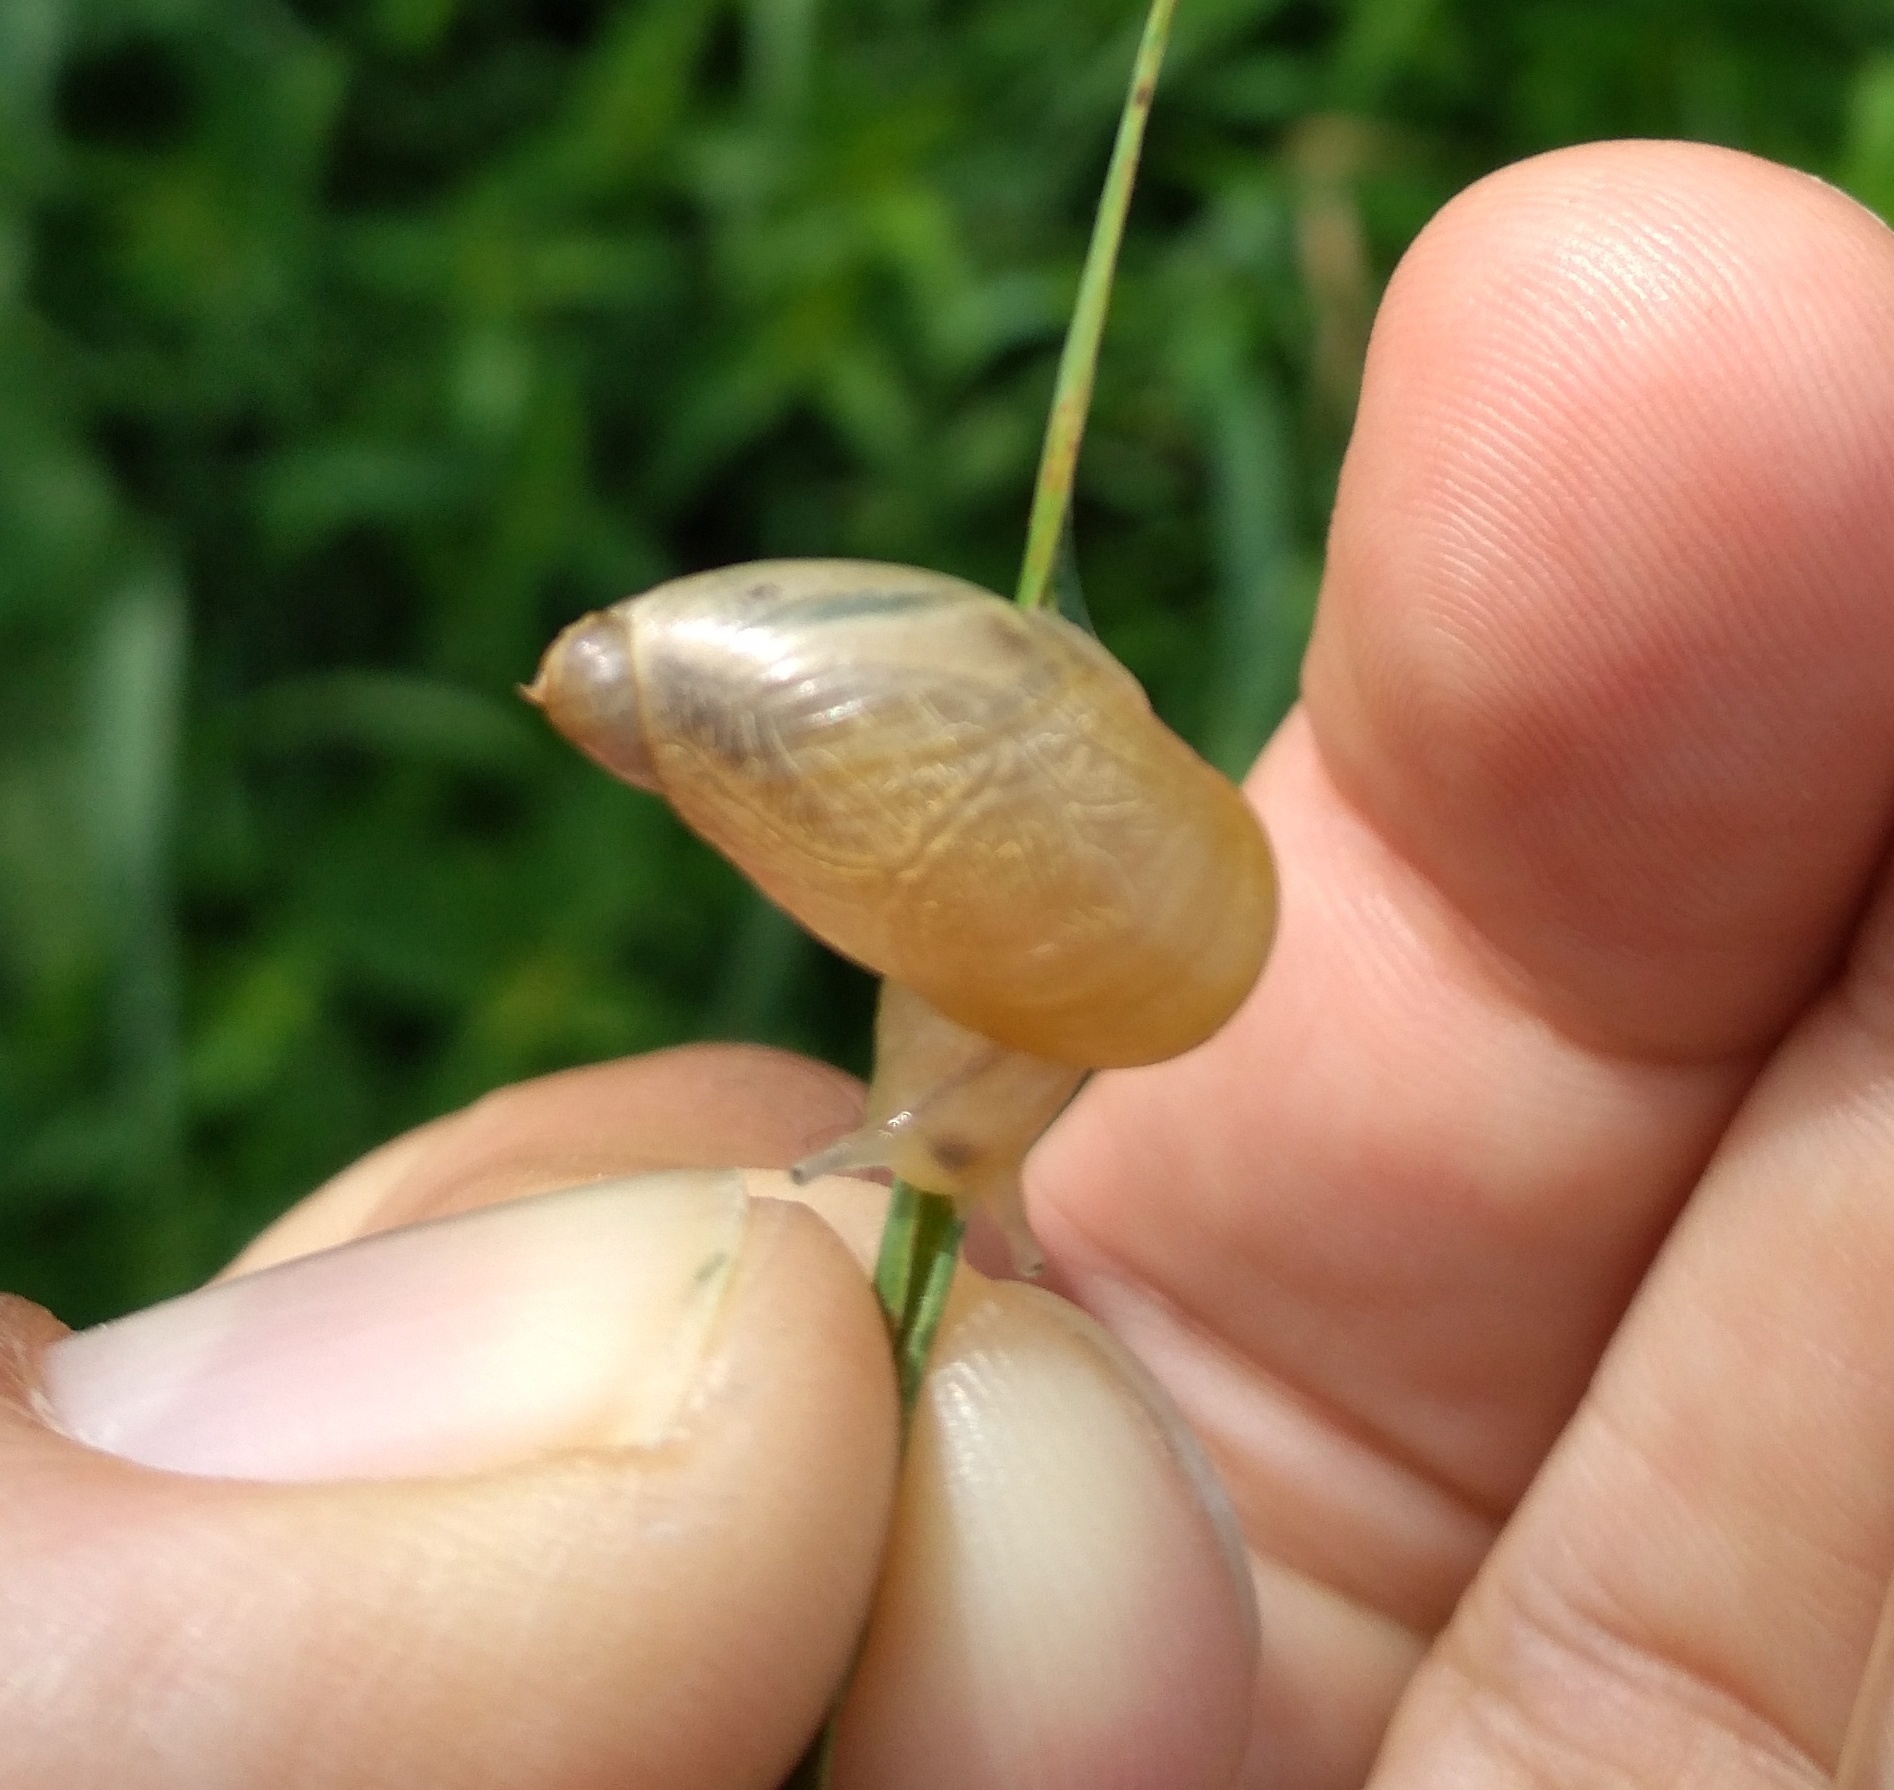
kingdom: Animalia
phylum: Mollusca
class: Gastropoda
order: Stylommatophora
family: Succineidae
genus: Succinea
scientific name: Succinea putris
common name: European ambersnail
